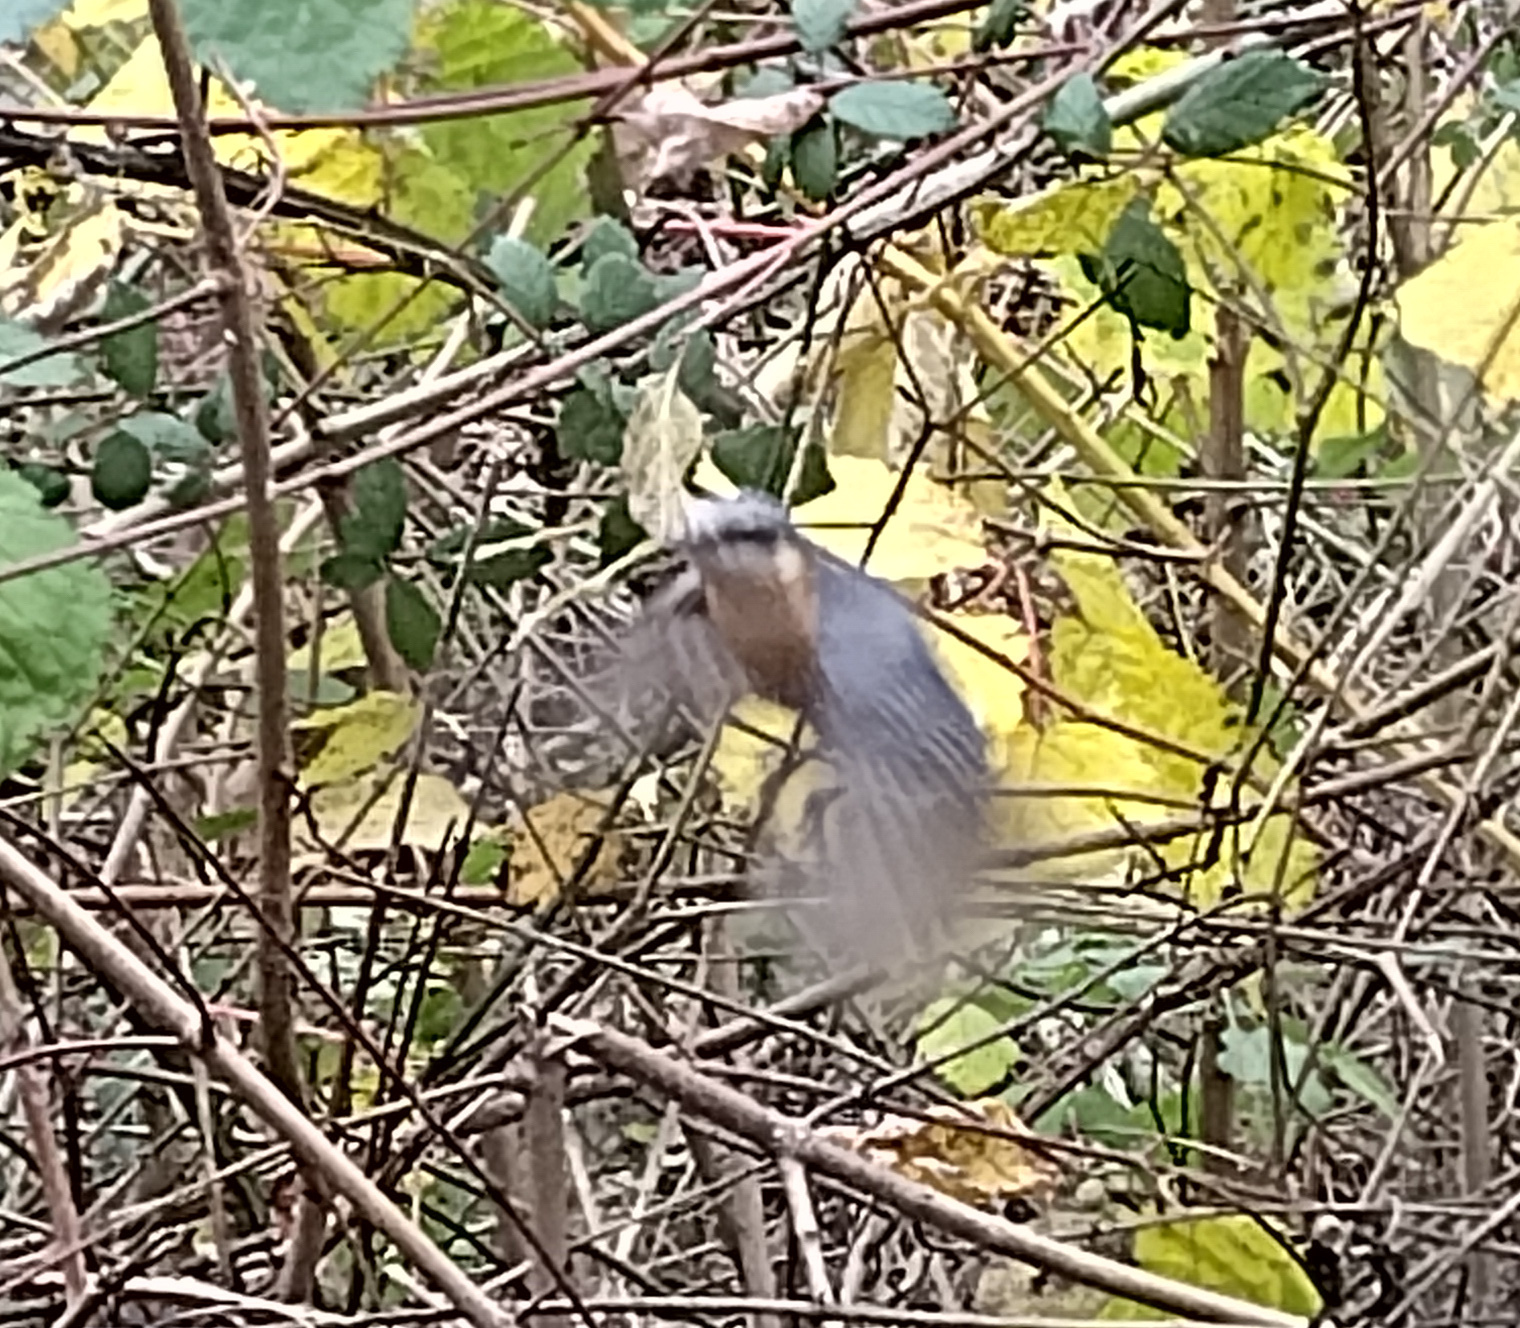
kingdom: Animalia
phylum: Chordata
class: Aves
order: Passeriformes
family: Sittidae
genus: Sitta
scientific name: Sitta europaea
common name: Eurasian nuthatch
